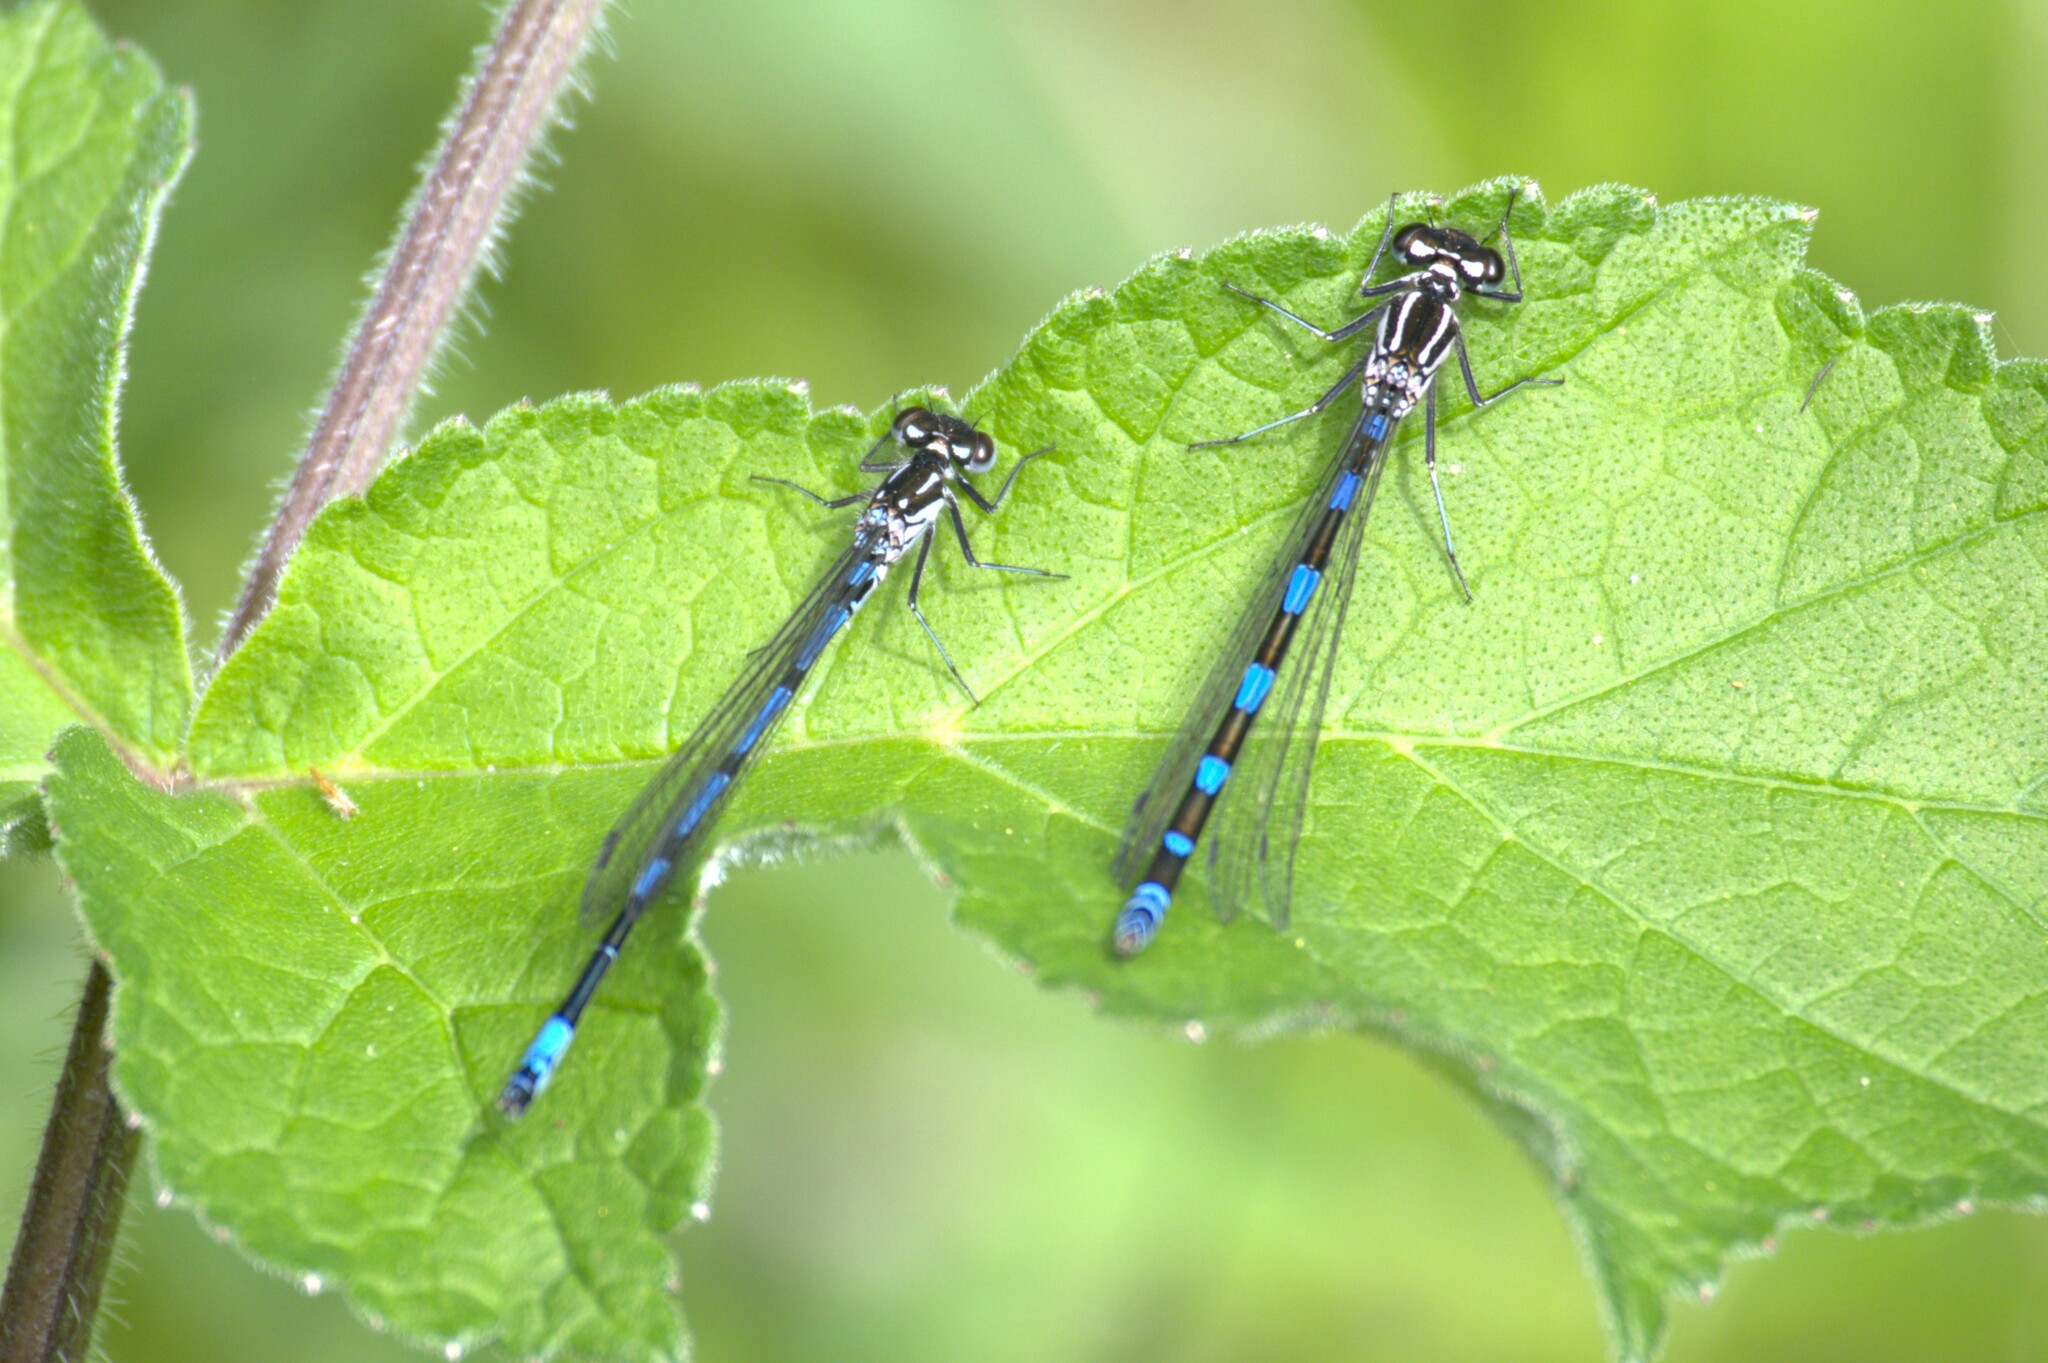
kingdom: Animalia
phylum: Arthropoda
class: Insecta
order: Odonata
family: Coenagrionidae
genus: Coenagrion
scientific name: Coenagrion pulchellum
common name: Variable bluet
